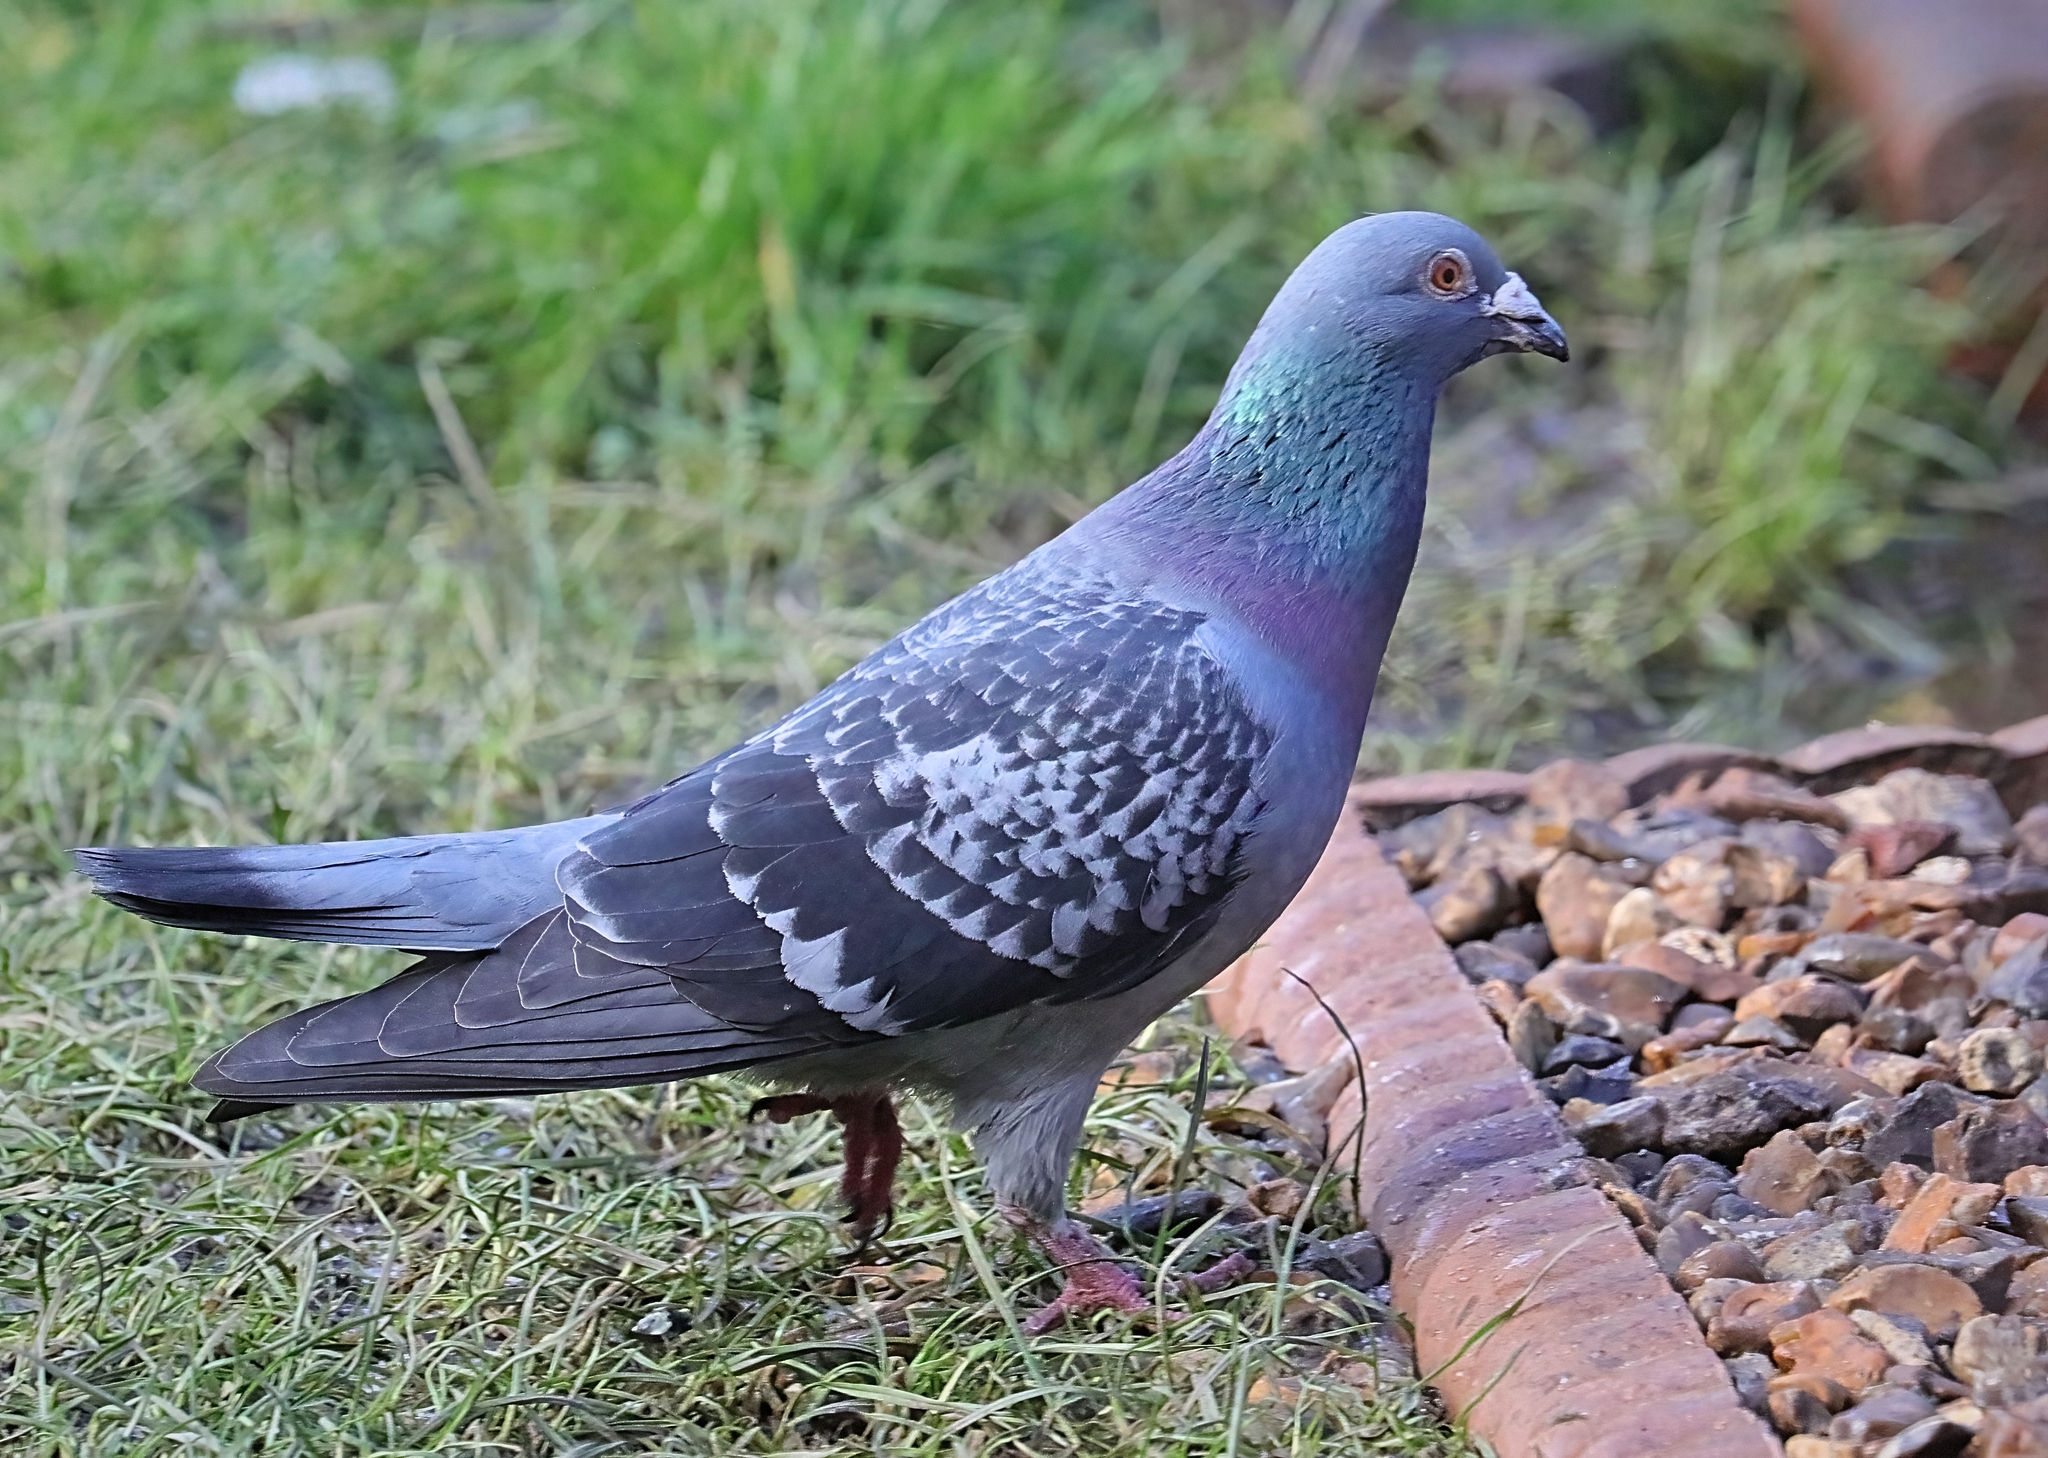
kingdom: Animalia
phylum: Chordata
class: Aves
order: Columbiformes
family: Columbidae
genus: Columba
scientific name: Columba livia
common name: Rock pigeon
